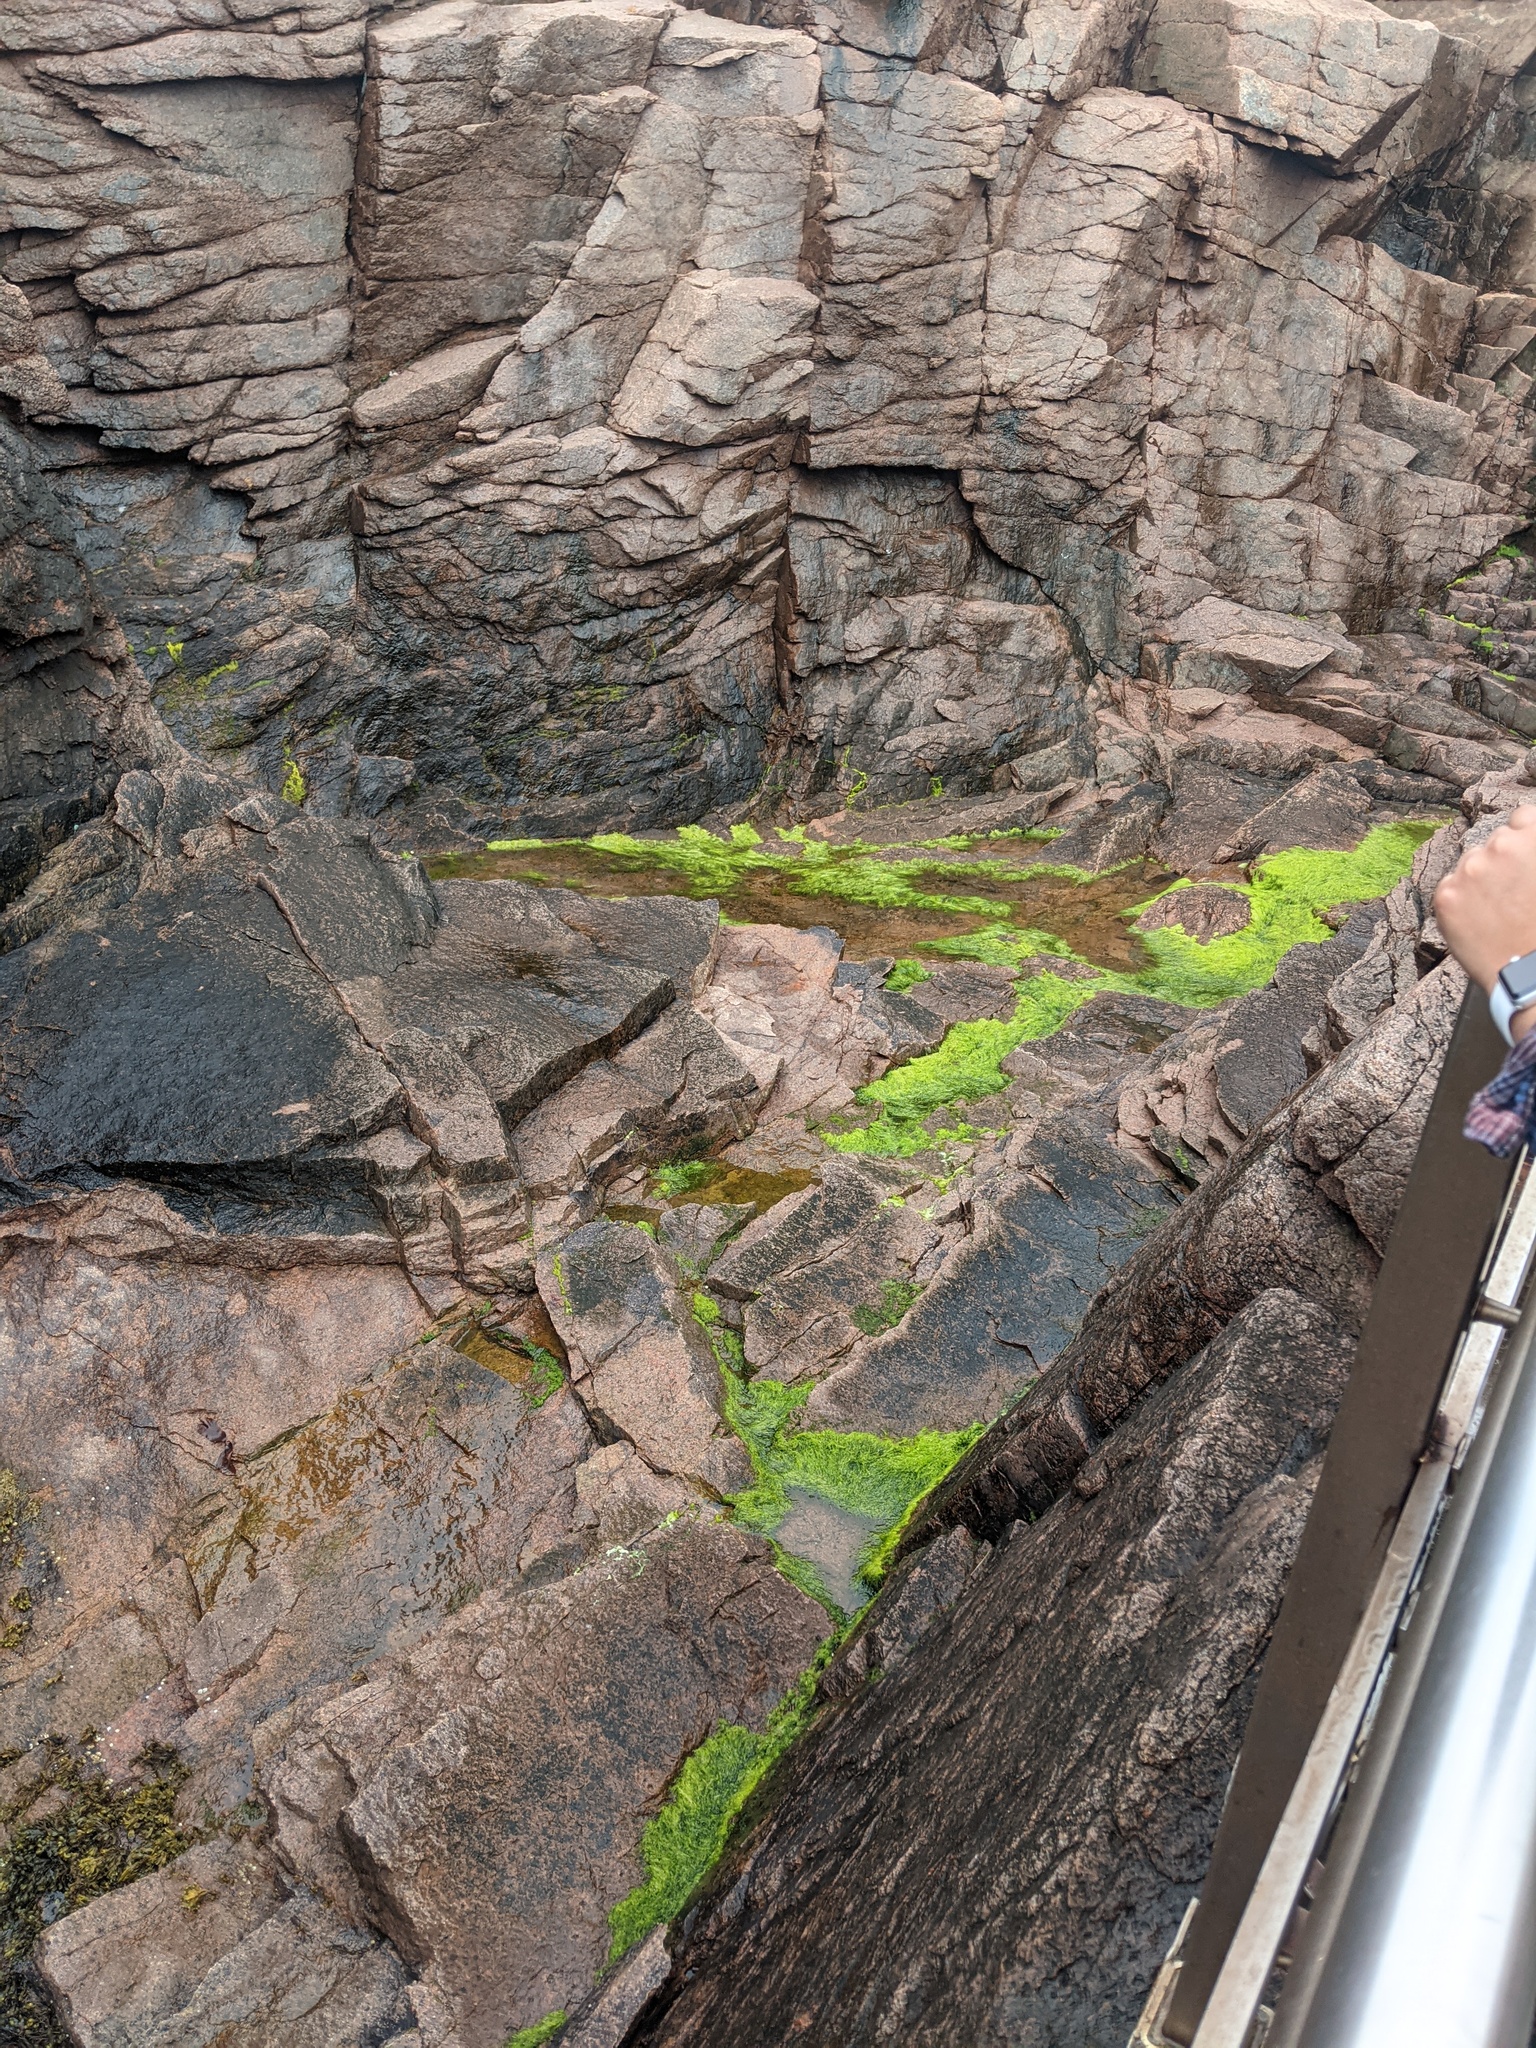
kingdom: Plantae
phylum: Chlorophyta
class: Ulvophyceae
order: Ulvales
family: Ulvaceae
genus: Ulva
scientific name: Ulva intestinalis
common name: Gut weed
